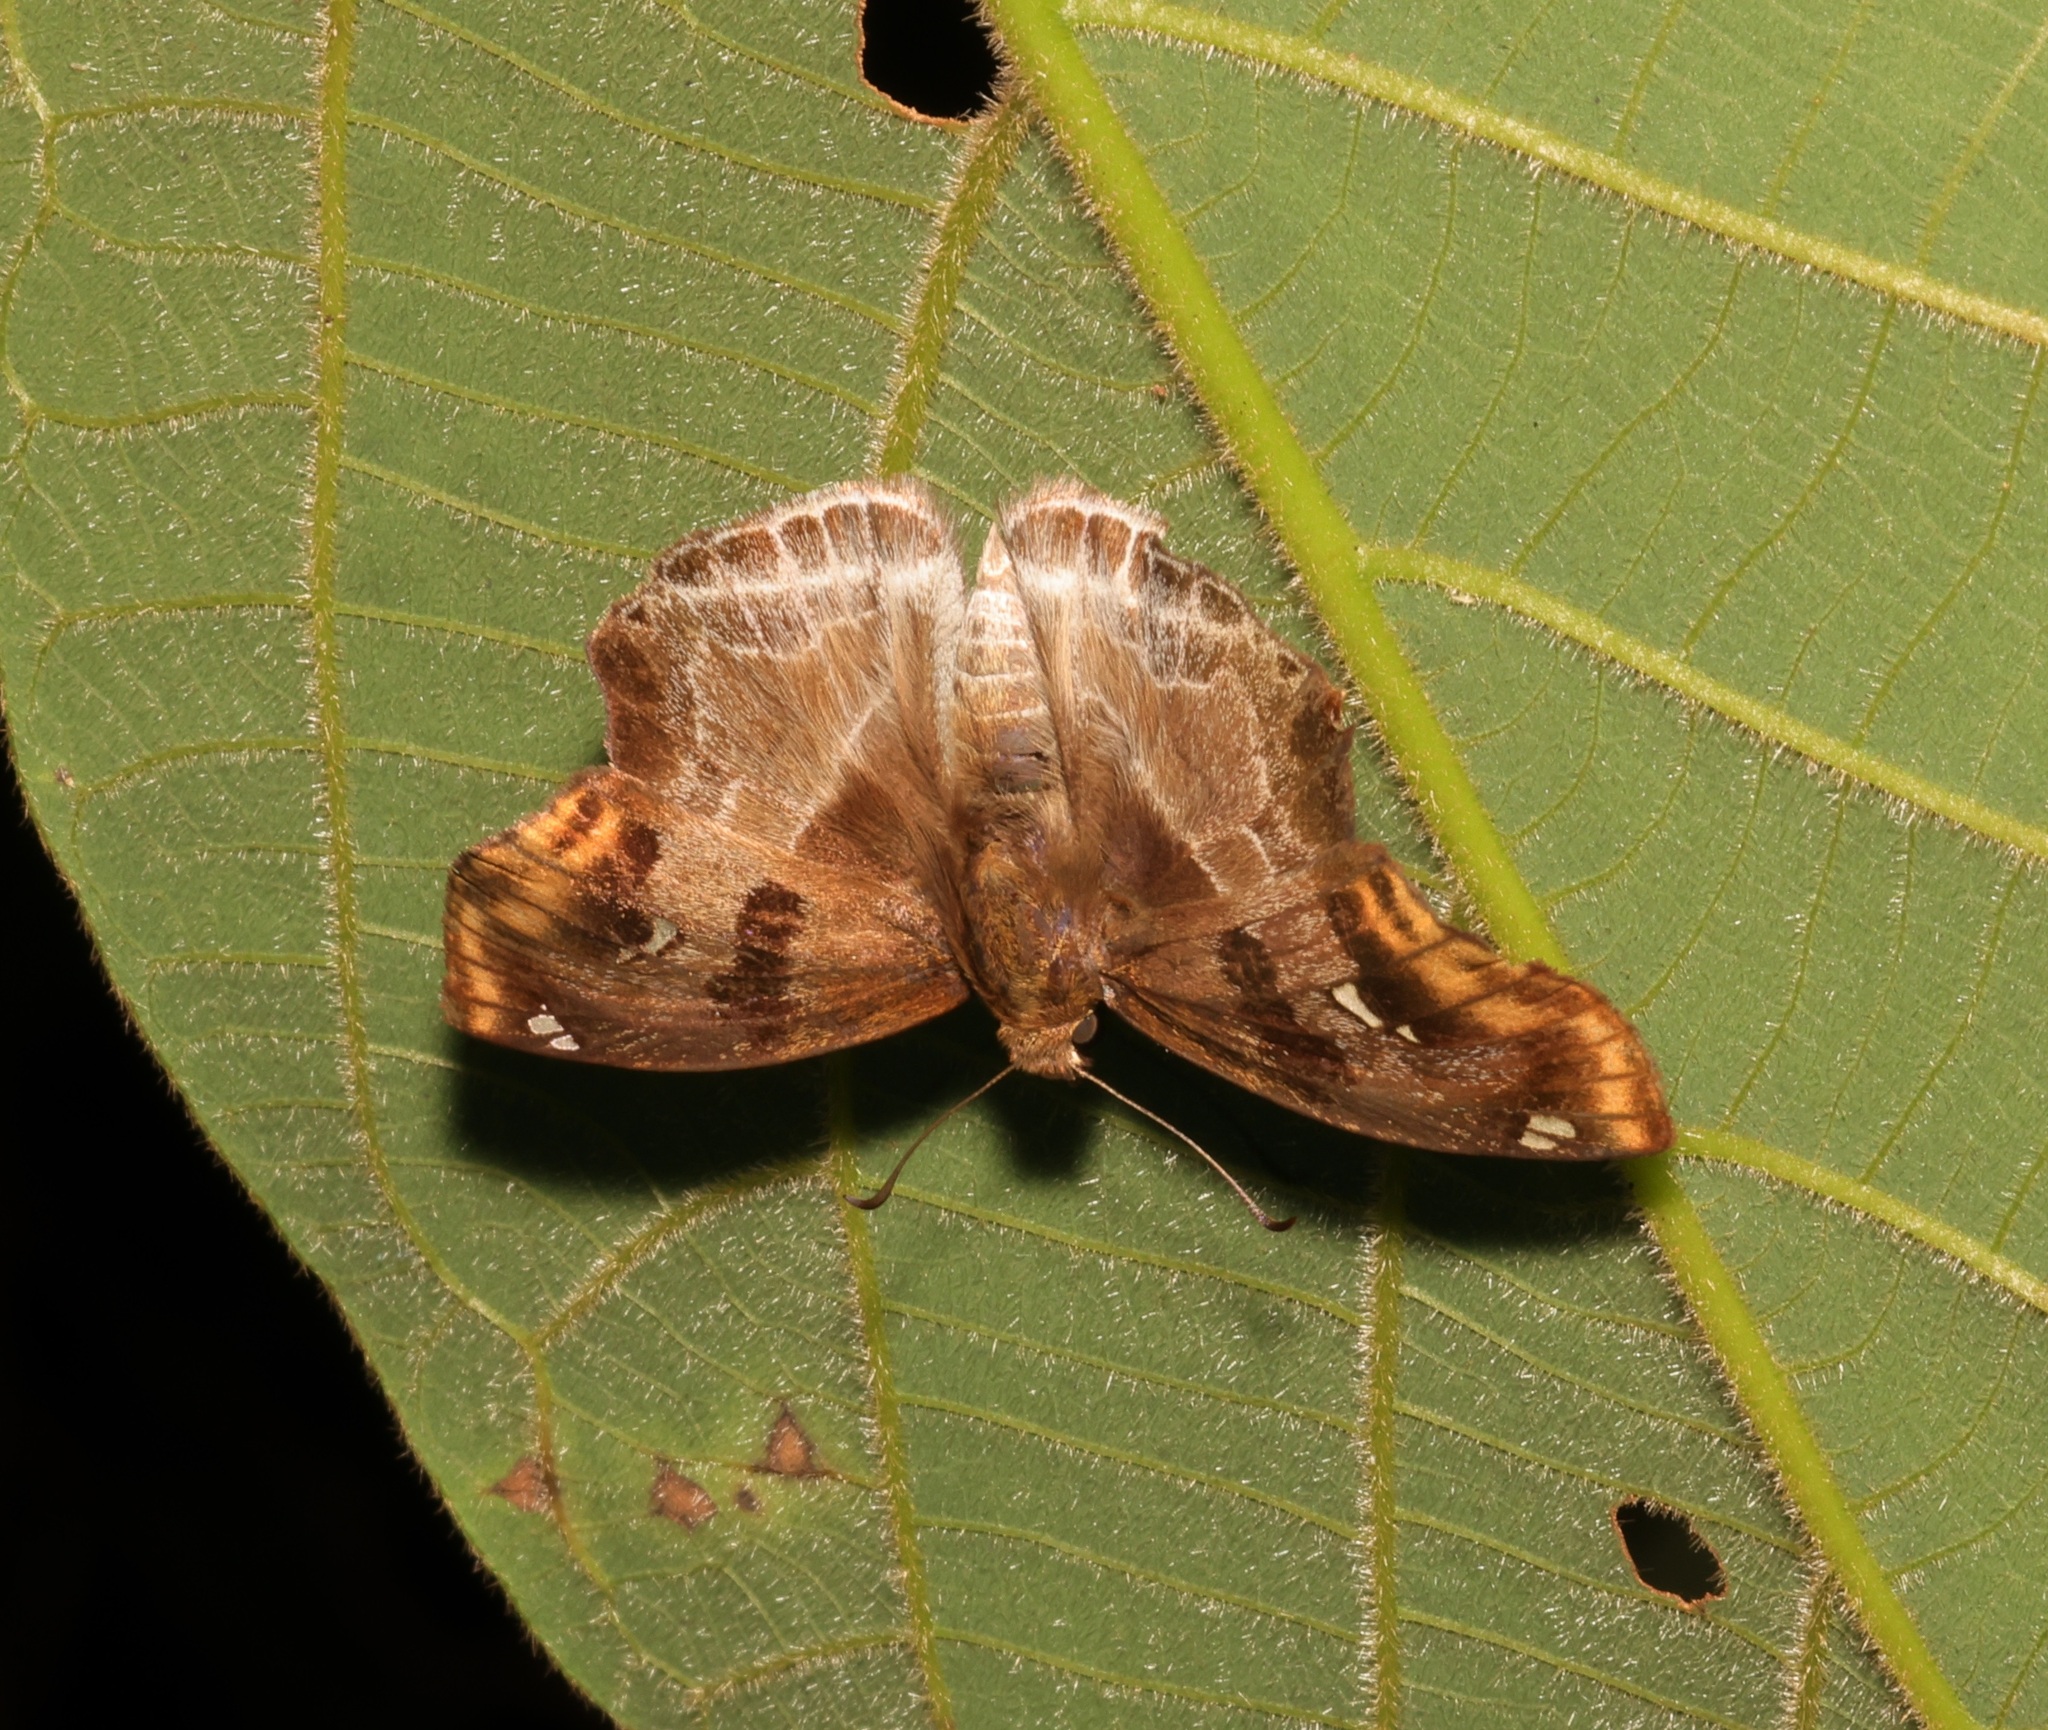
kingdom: Animalia
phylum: Arthropoda
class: Insecta
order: Lepidoptera
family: Hesperiidae
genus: Odontoptilum
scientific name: Odontoptilum angulata
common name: Chestnut banded angle
